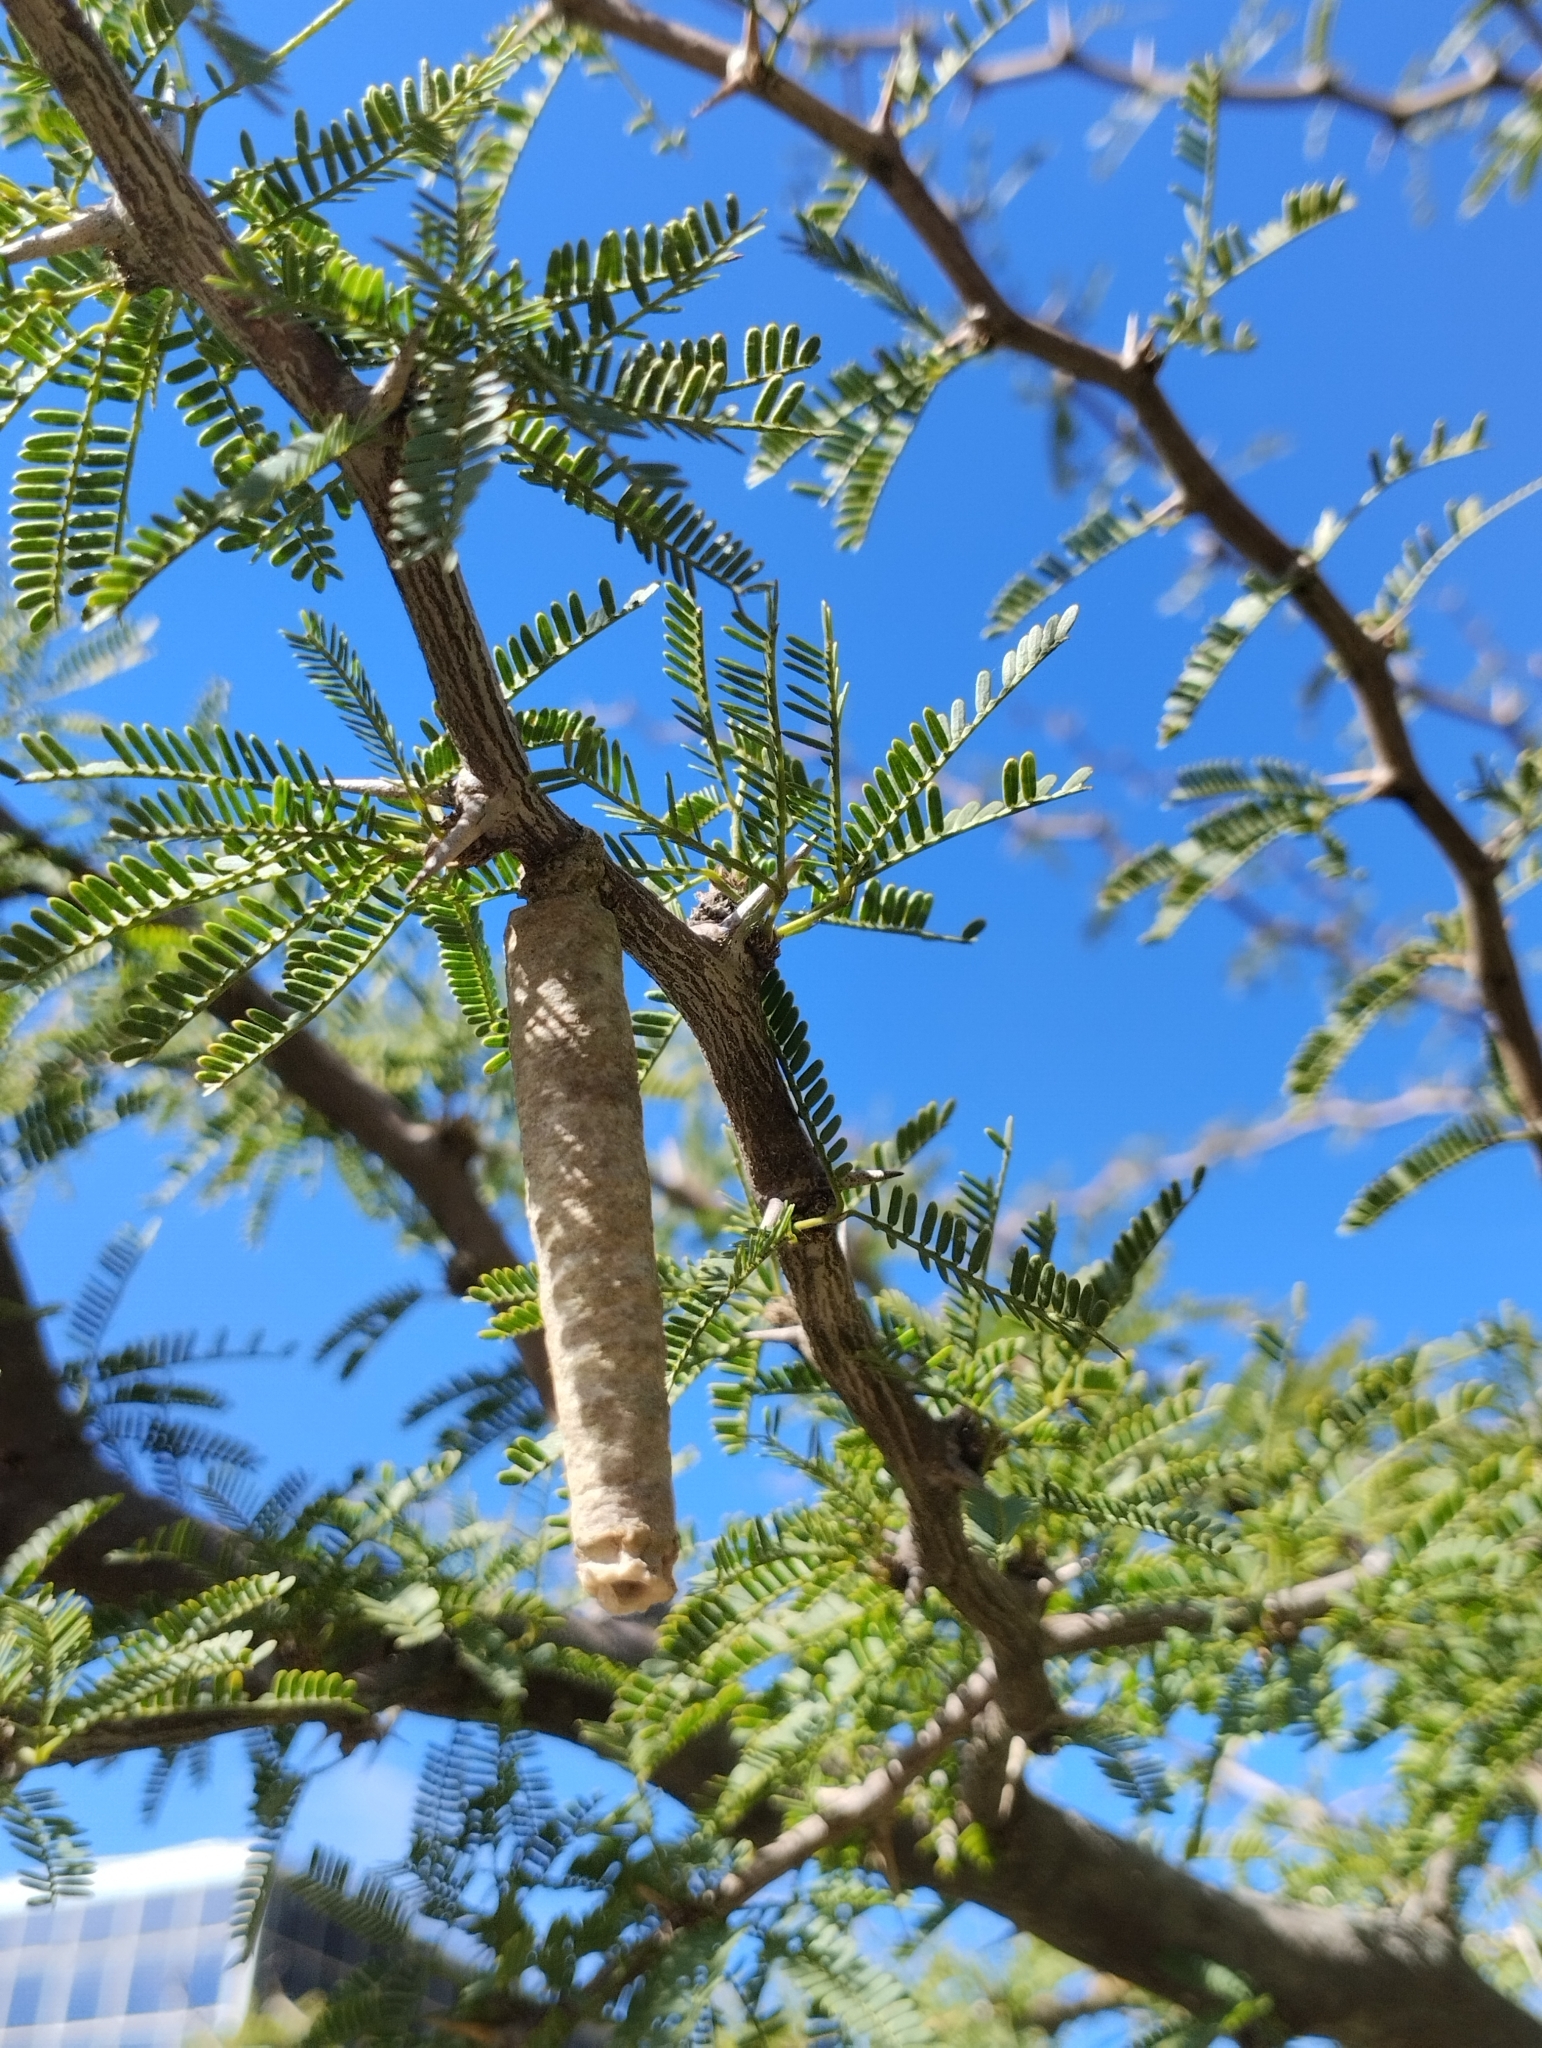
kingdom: Animalia
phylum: Arthropoda
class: Insecta
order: Lepidoptera
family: Psychidae
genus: Oiketicus
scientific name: Oiketicus geyeri
